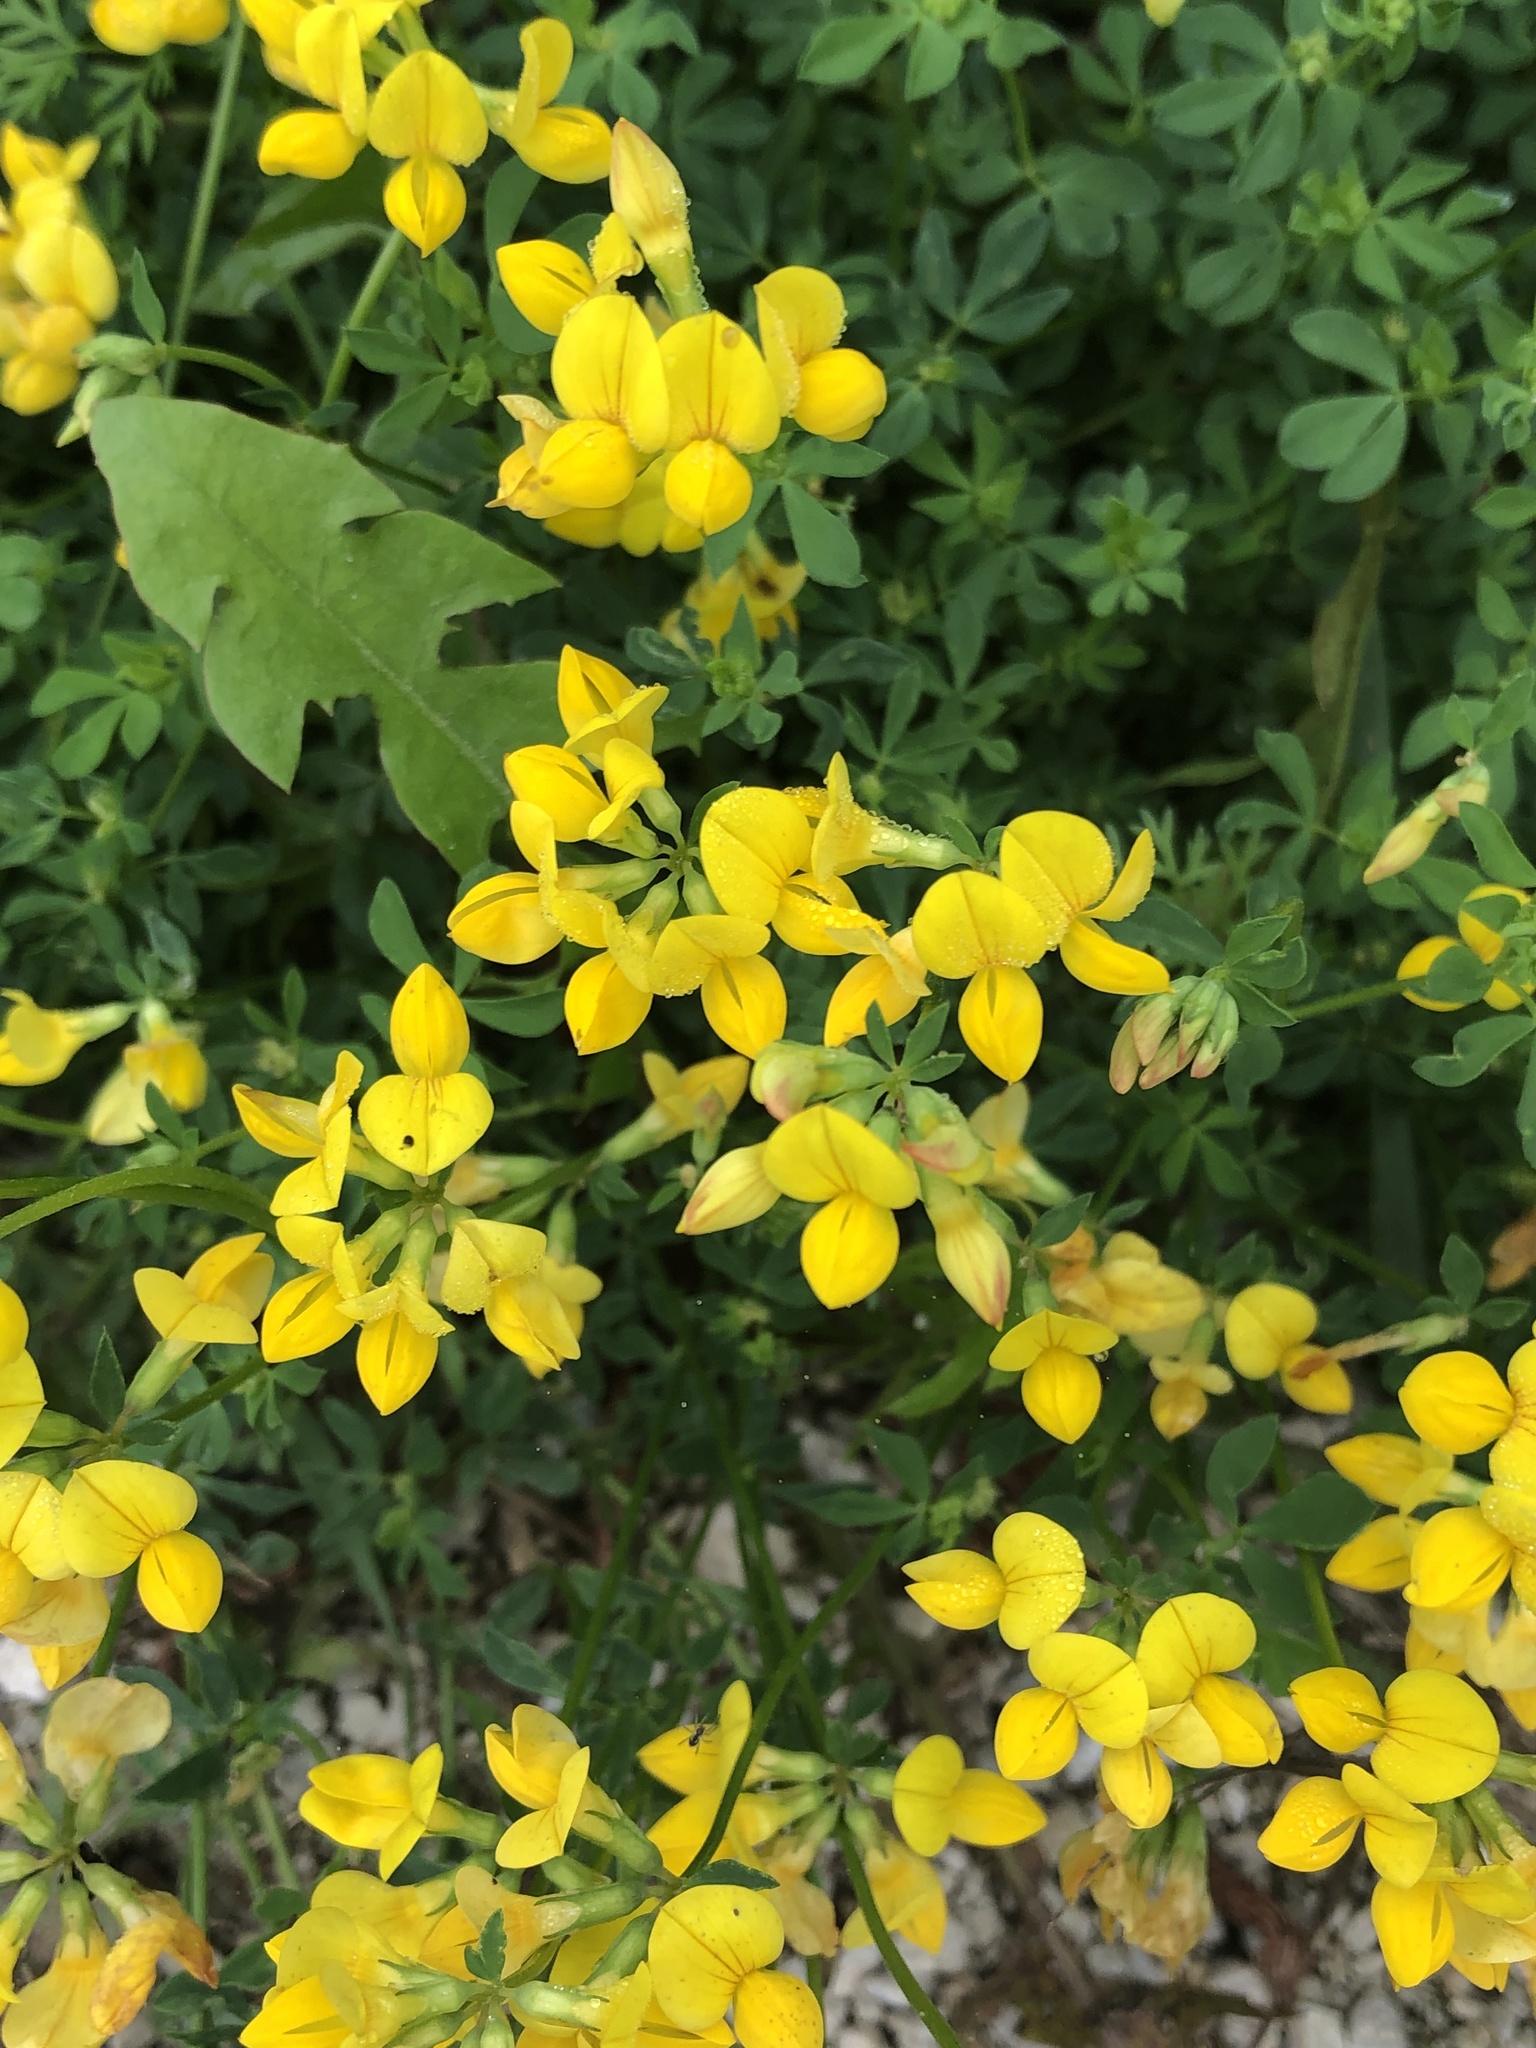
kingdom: Plantae
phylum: Tracheophyta
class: Magnoliopsida
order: Fabales
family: Fabaceae
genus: Lotus
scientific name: Lotus corniculatus
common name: Common bird's-foot-trefoil
